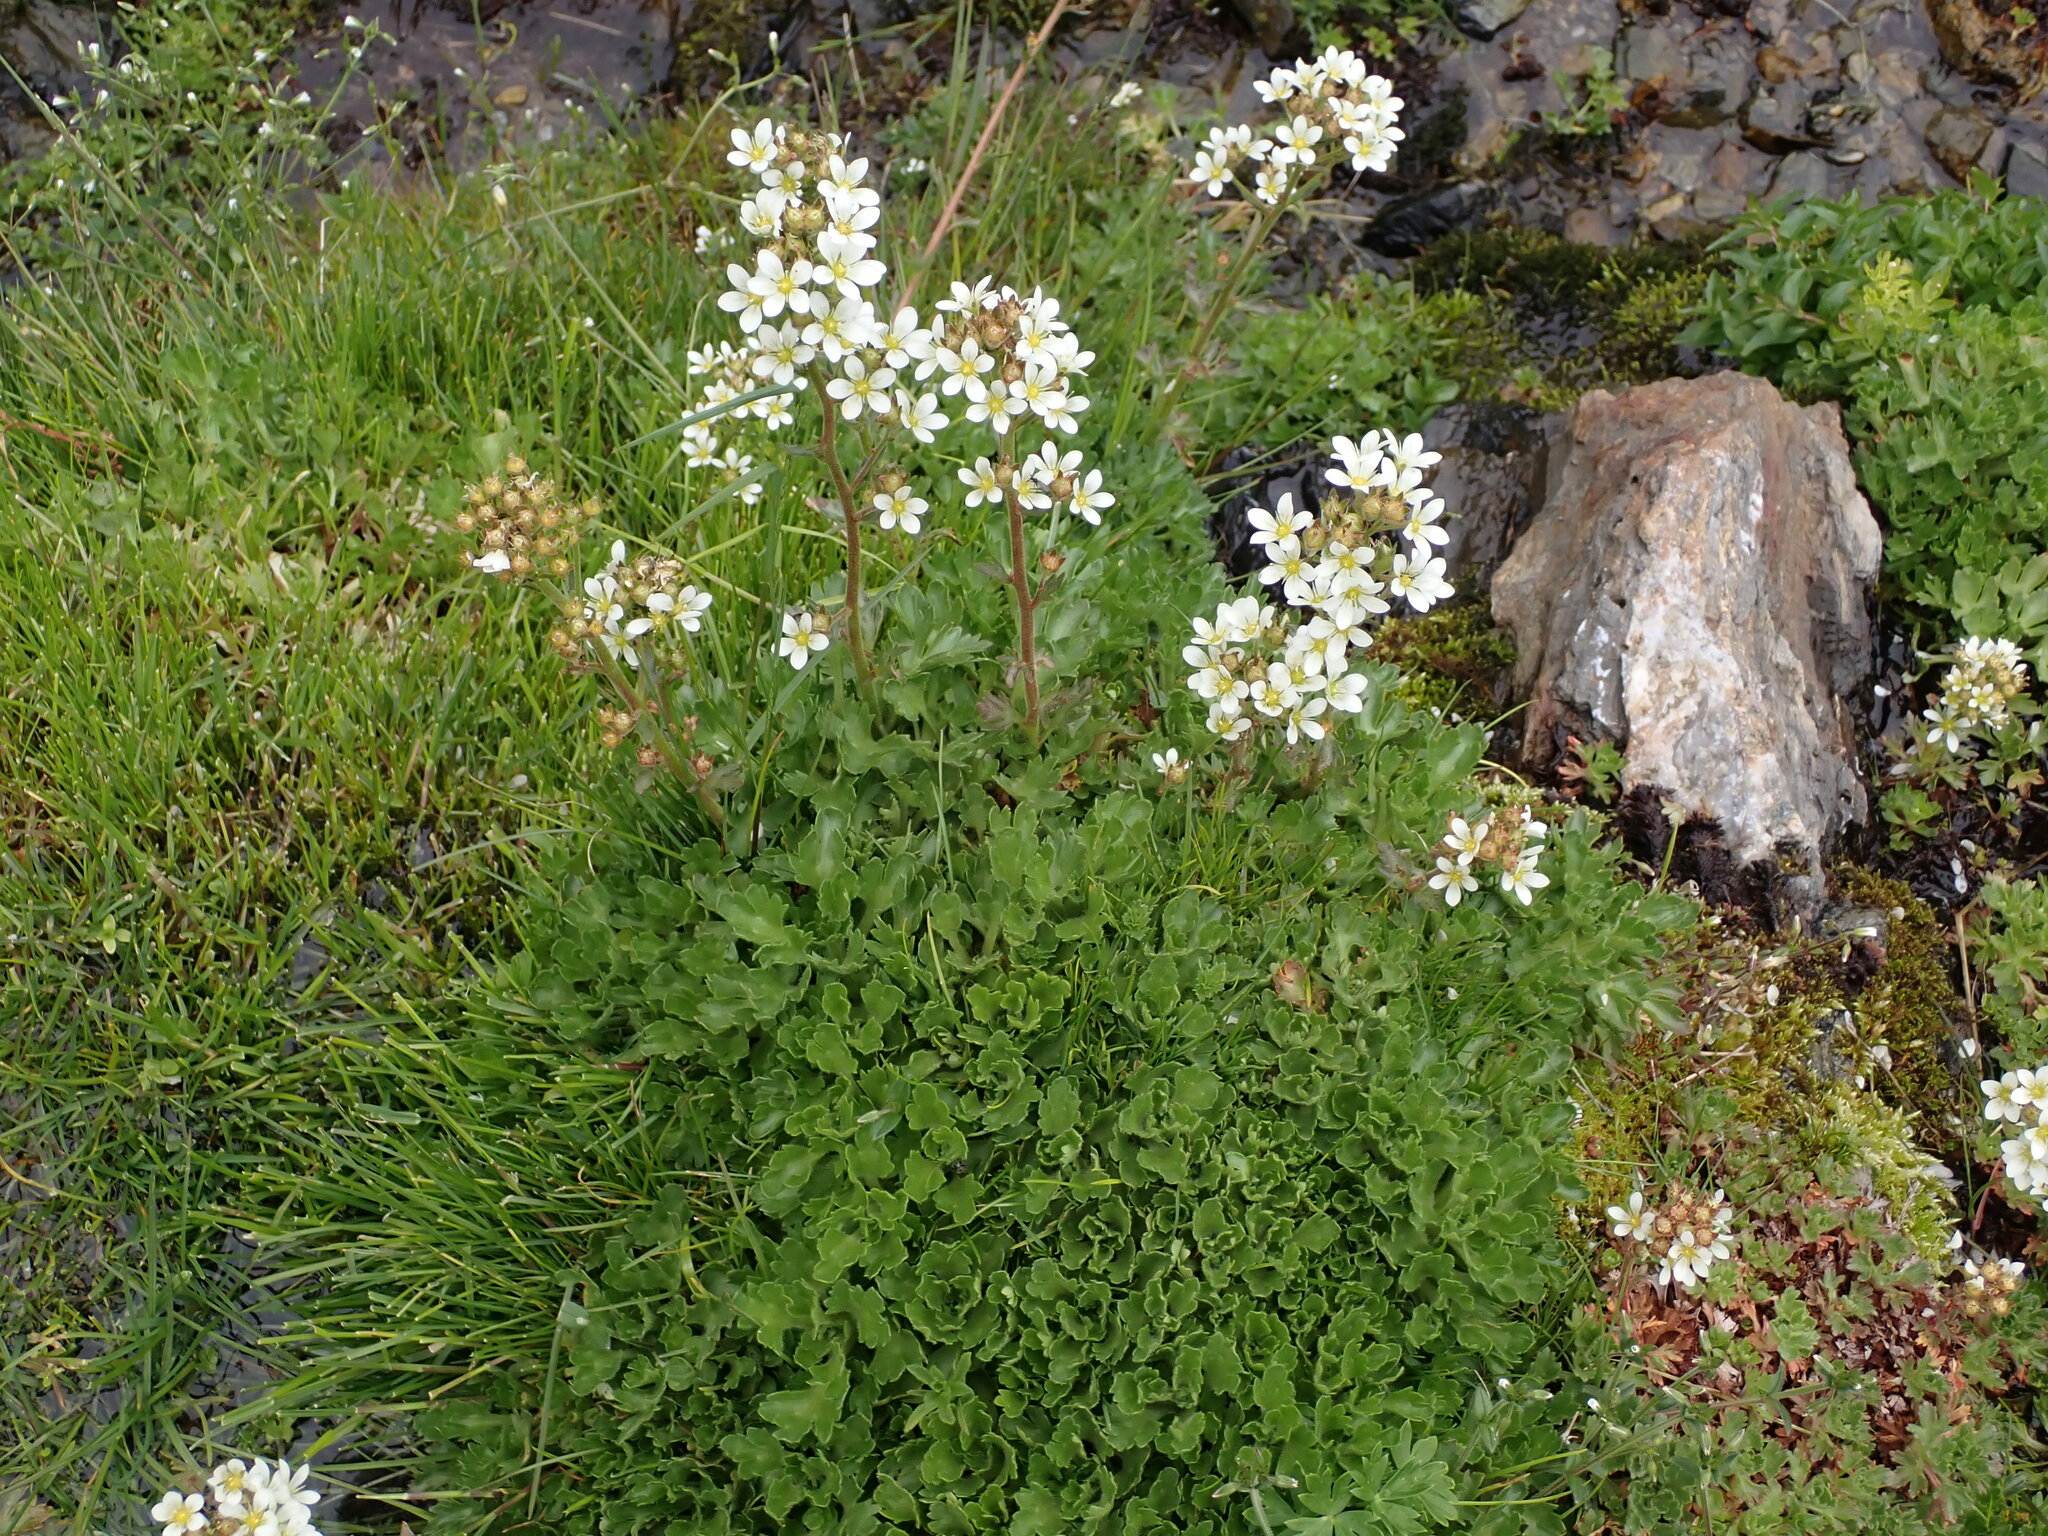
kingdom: Plantae
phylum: Tracheophyta
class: Magnoliopsida
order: Saxifragales
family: Saxifragaceae
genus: Saxifraga
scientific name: Saxifraga aquatica
